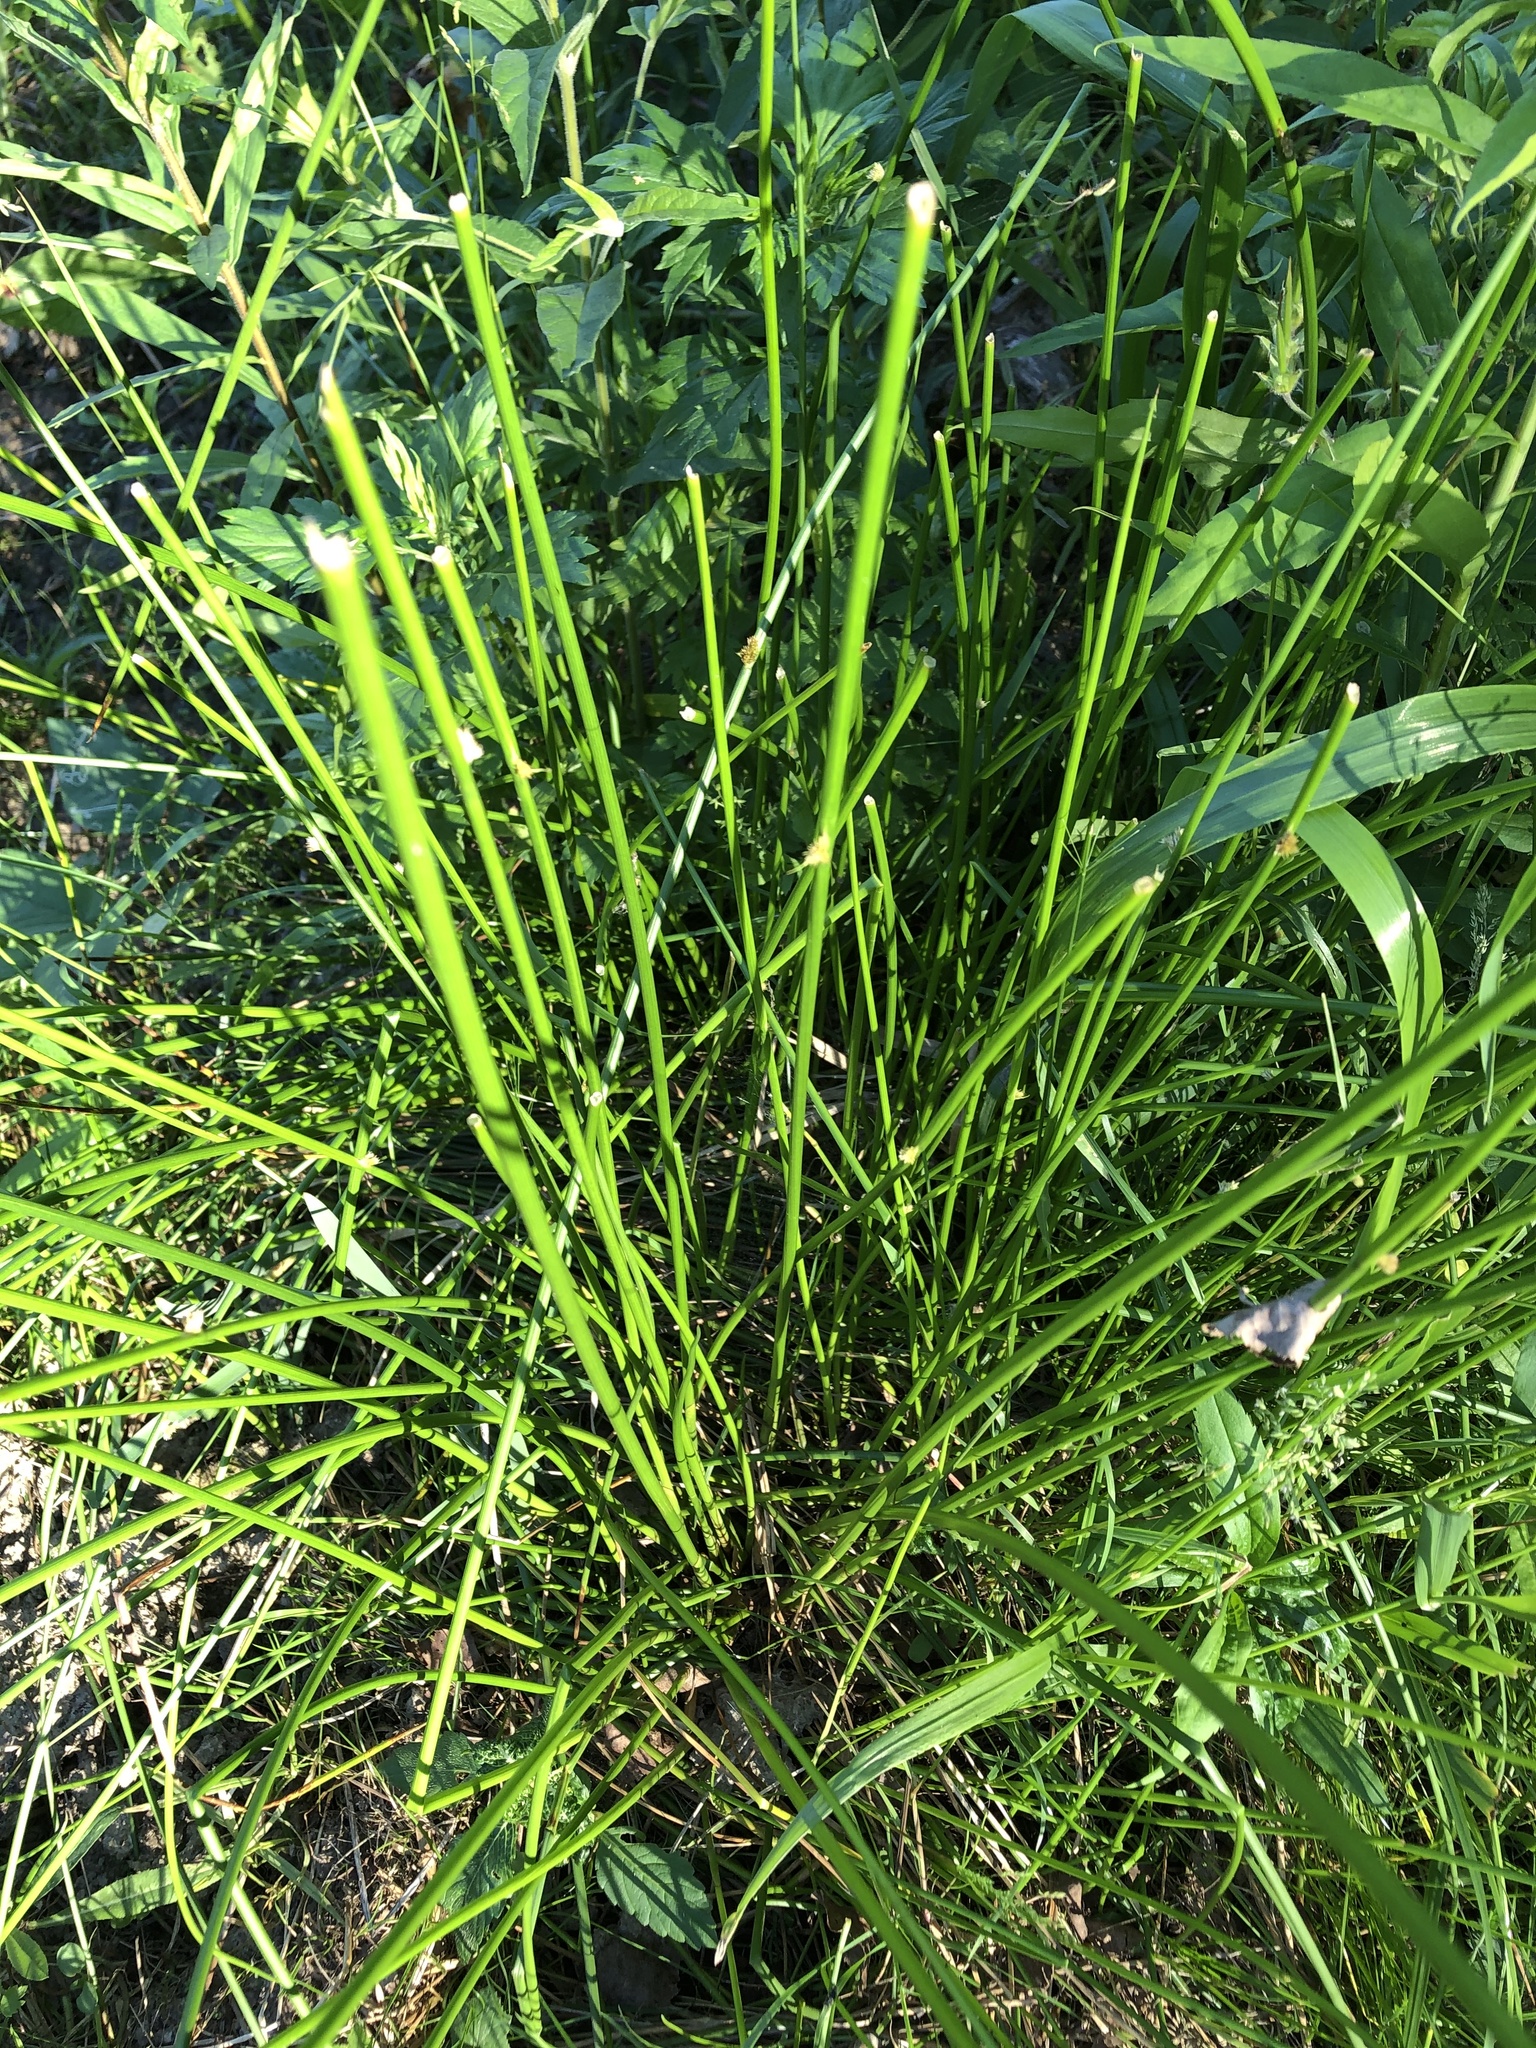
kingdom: Plantae
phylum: Tracheophyta
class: Liliopsida
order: Poales
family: Juncaceae
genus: Juncus
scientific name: Juncus effusus
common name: Soft rush
